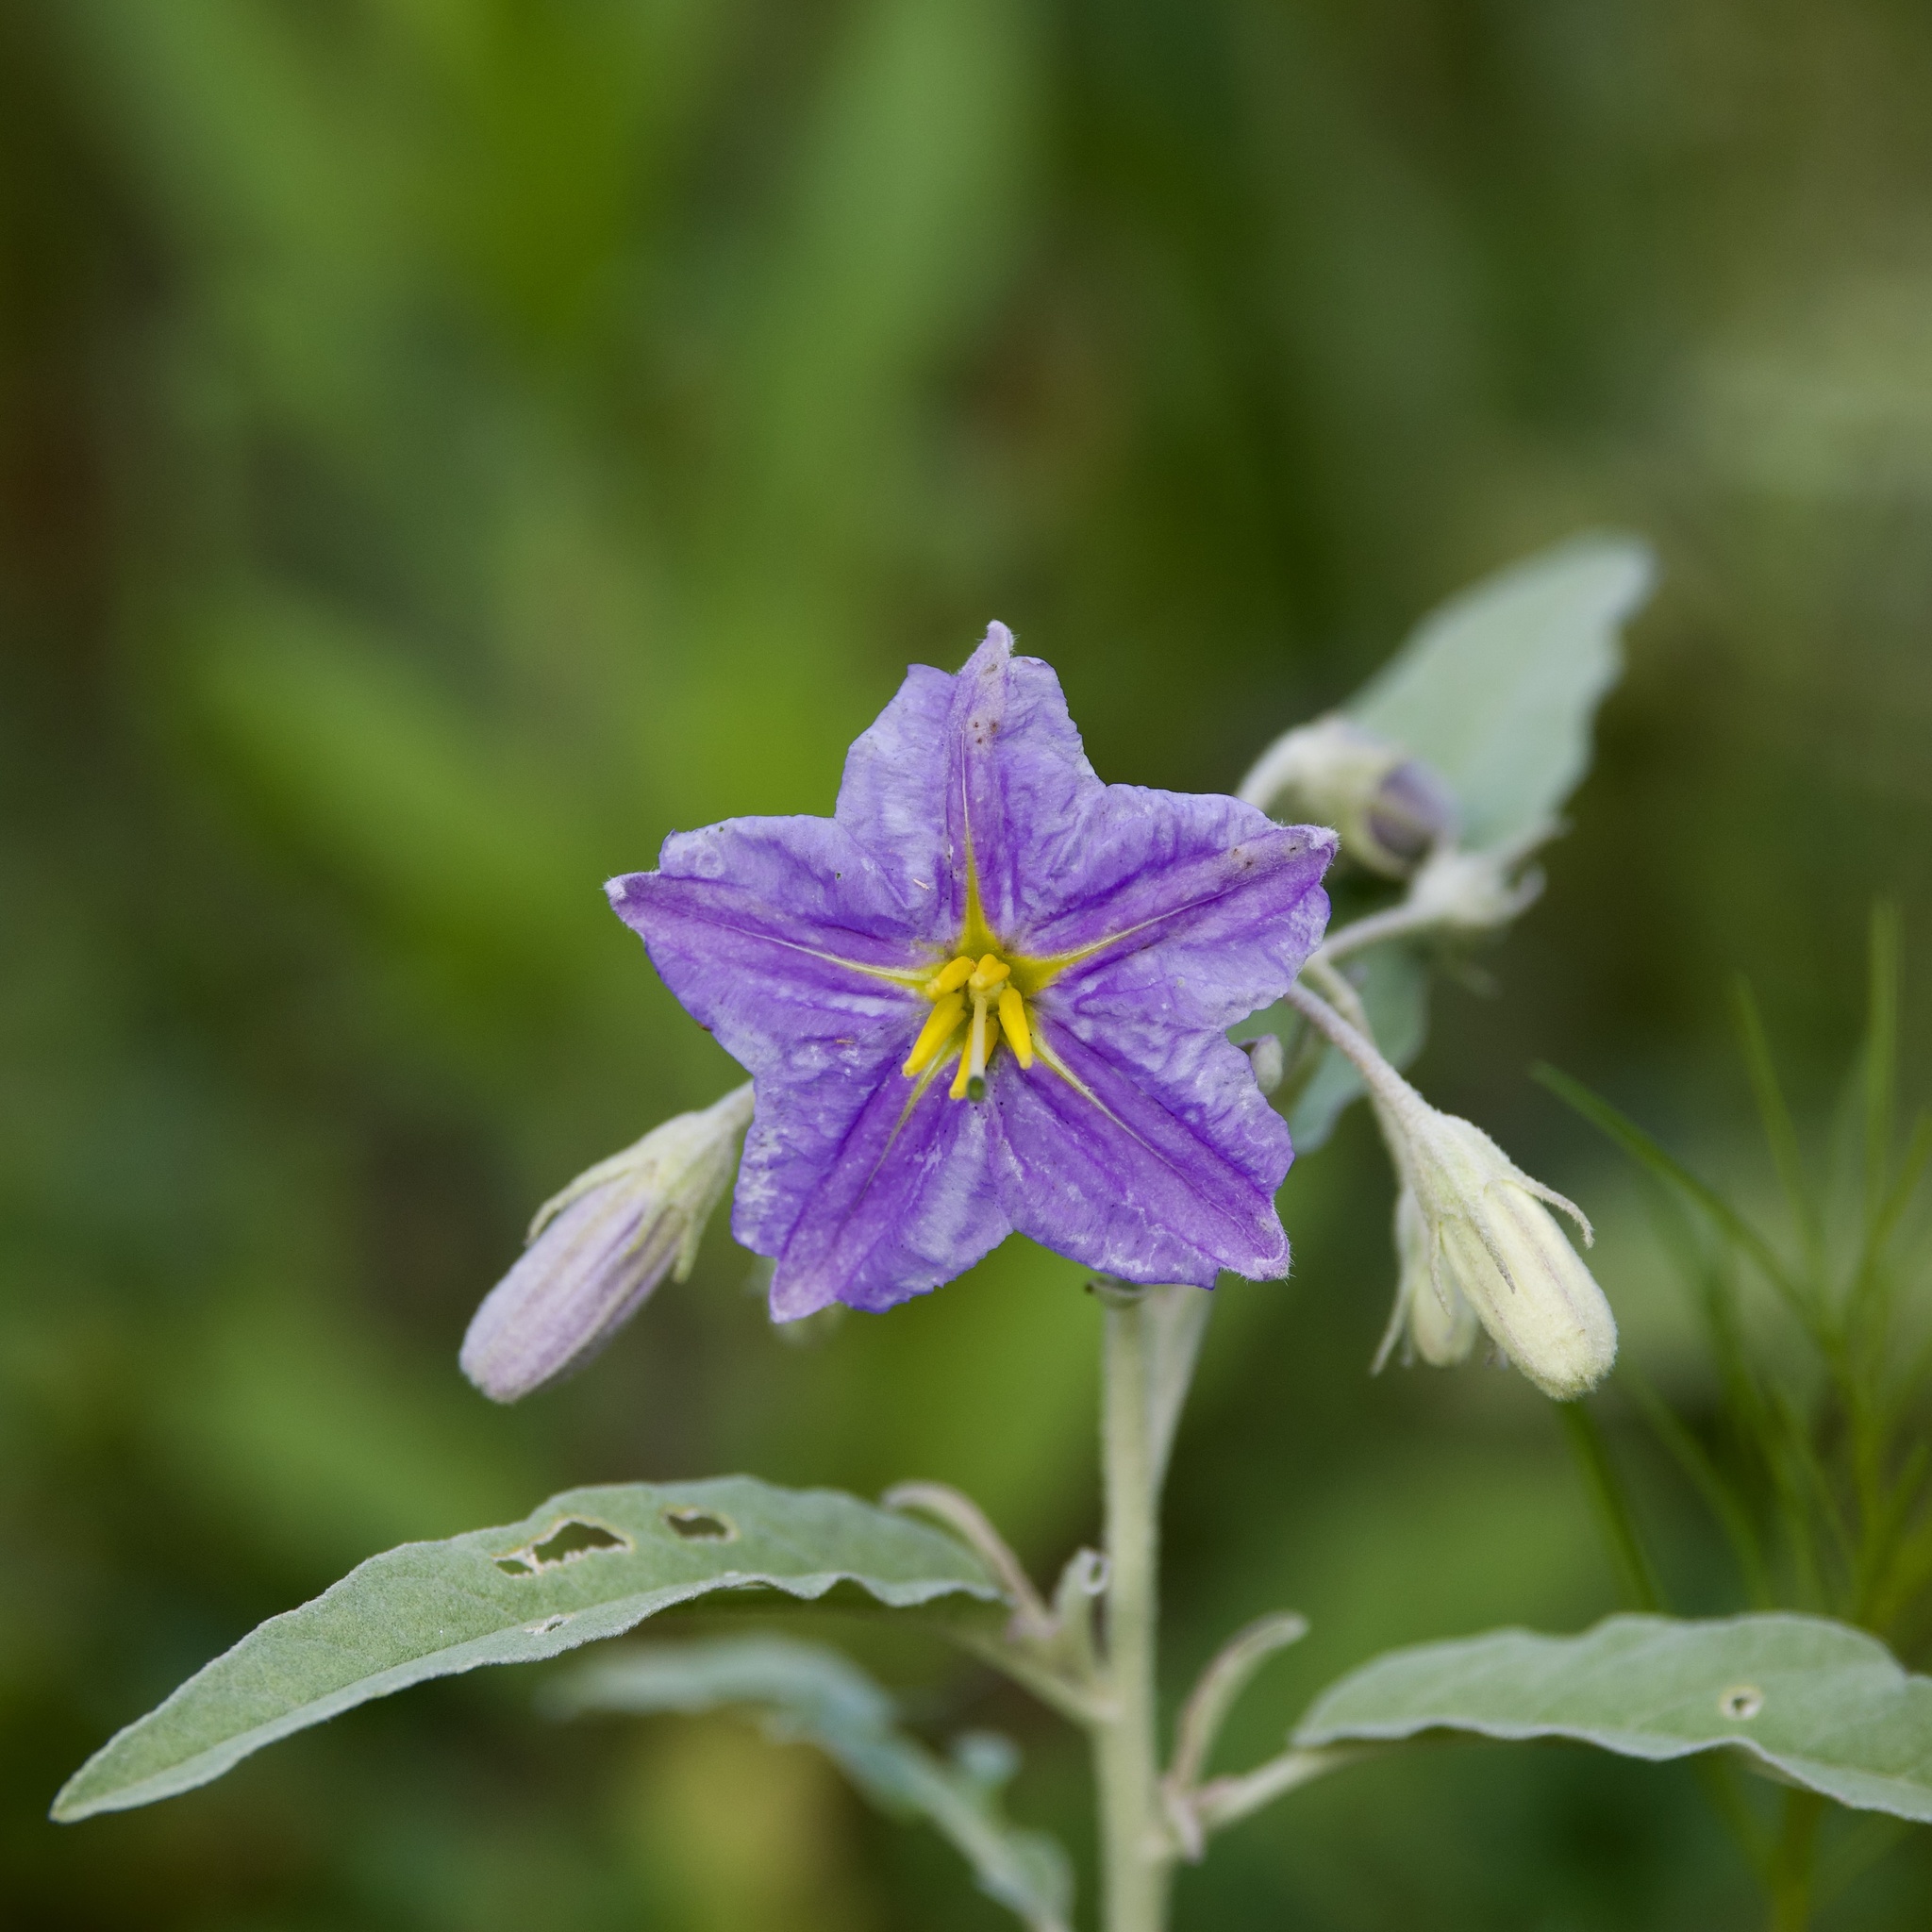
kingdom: Plantae
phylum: Tracheophyta
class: Magnoliopsida
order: Solanales
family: Solanaceae
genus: Solanum
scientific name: Solanum elaeagnifolium
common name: Silverleaf nightshade
